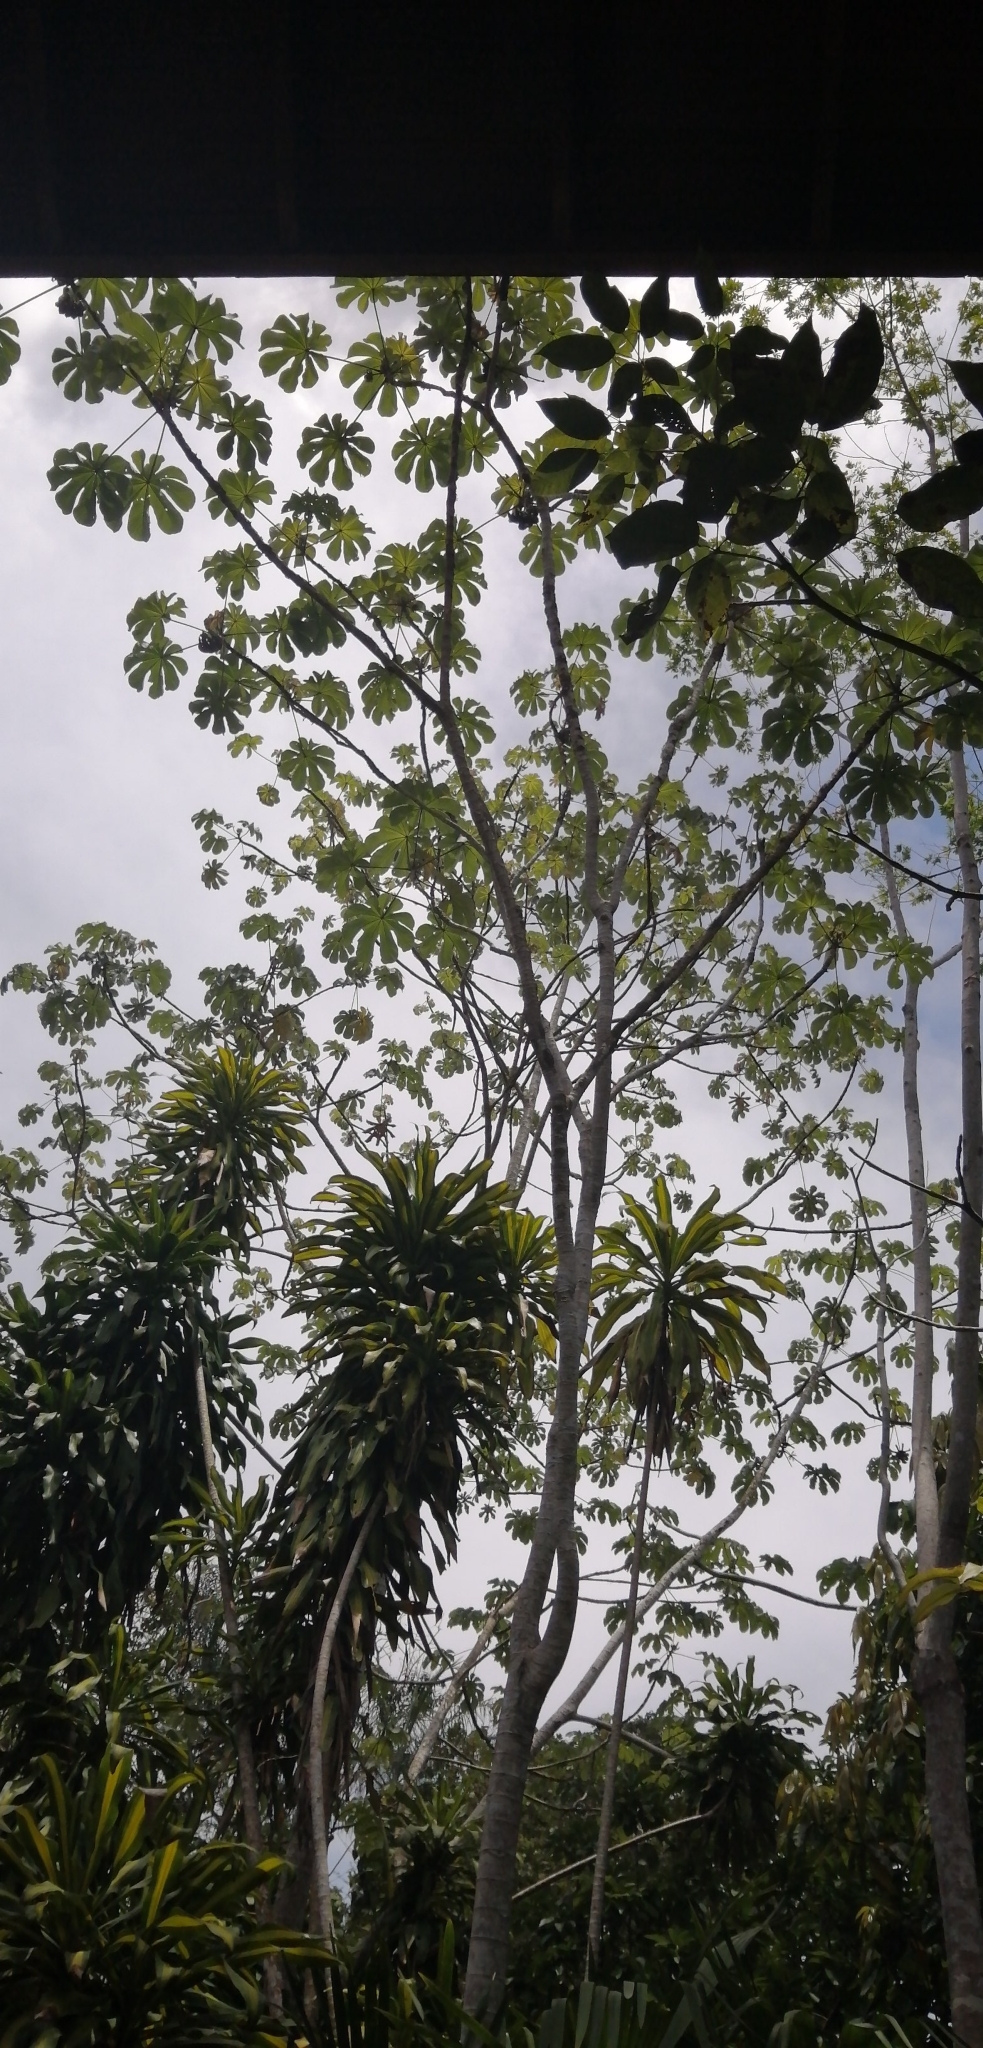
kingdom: Plantae
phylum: Tracheophyta
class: Magnoliopsida
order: Rosales
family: Urticaceae
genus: Cecropia
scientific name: Cecropia peltata
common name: Trumpet-tree
